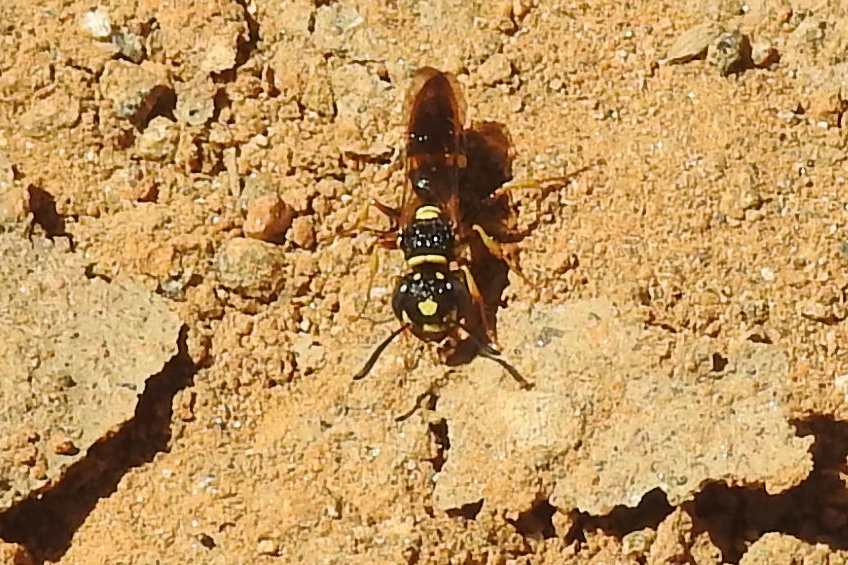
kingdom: Animalia
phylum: Arthropoda
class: Insecta
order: Hymenoptera
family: Crabronidae
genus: Philanthus
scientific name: Philanthus gibbosus
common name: Humped beewolf
